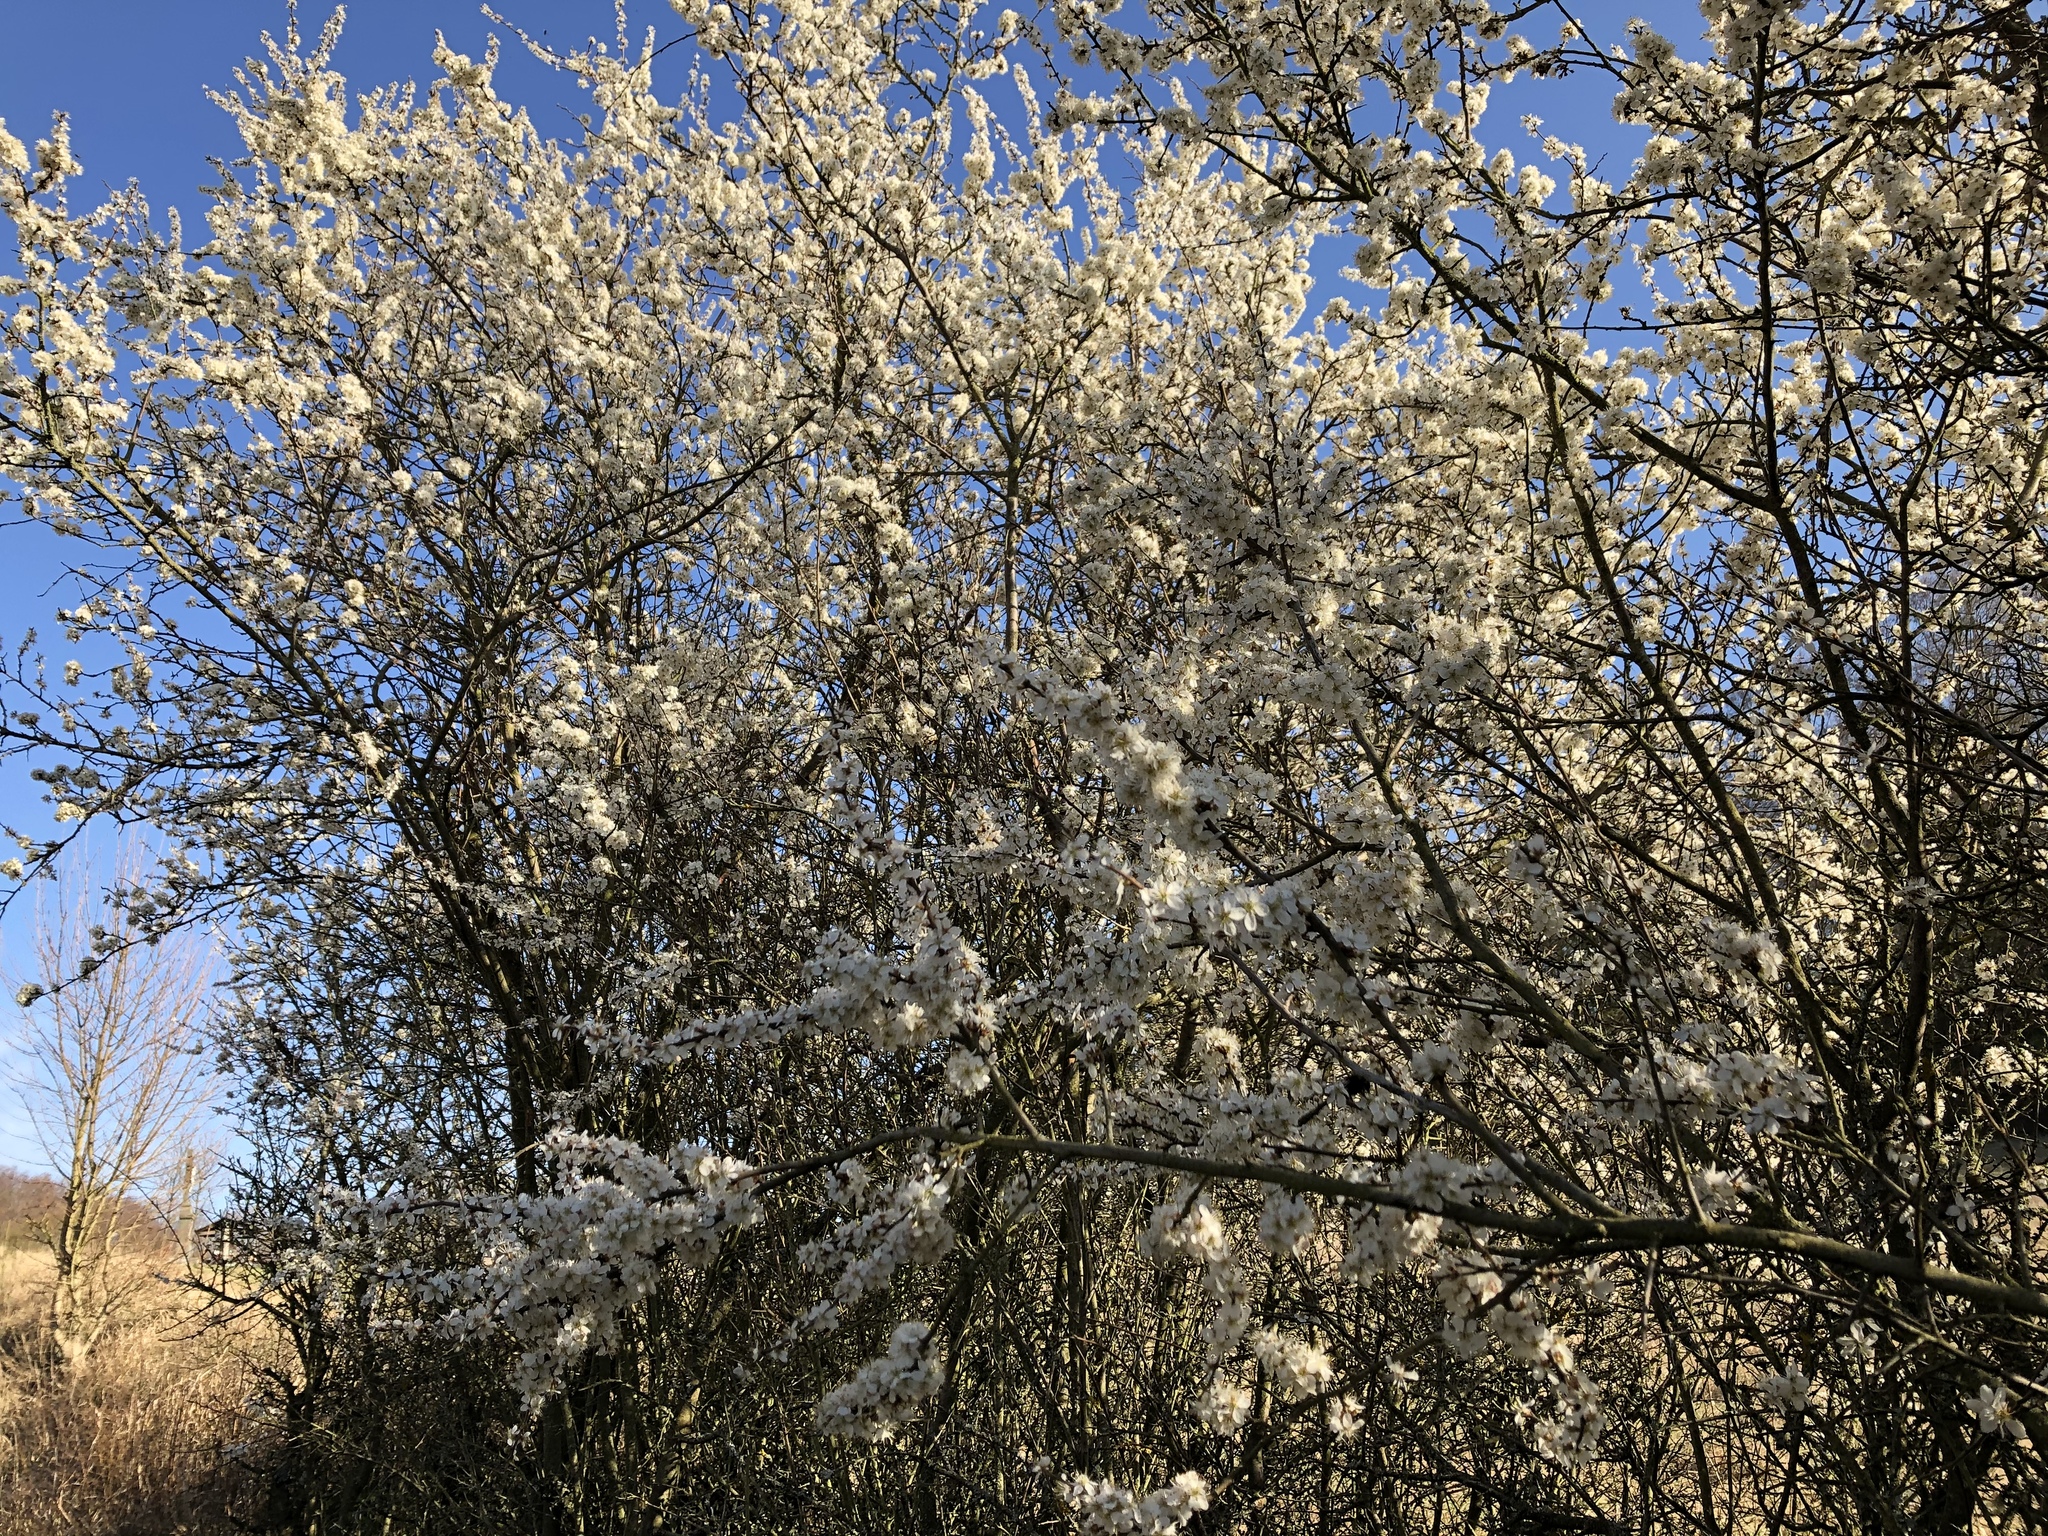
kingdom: Plantae
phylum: Tracheophyta
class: Magnoliopsida
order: Rosales
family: Rosaceae
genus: Prunus
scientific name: Prunus cerasifera
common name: Cherry plum
